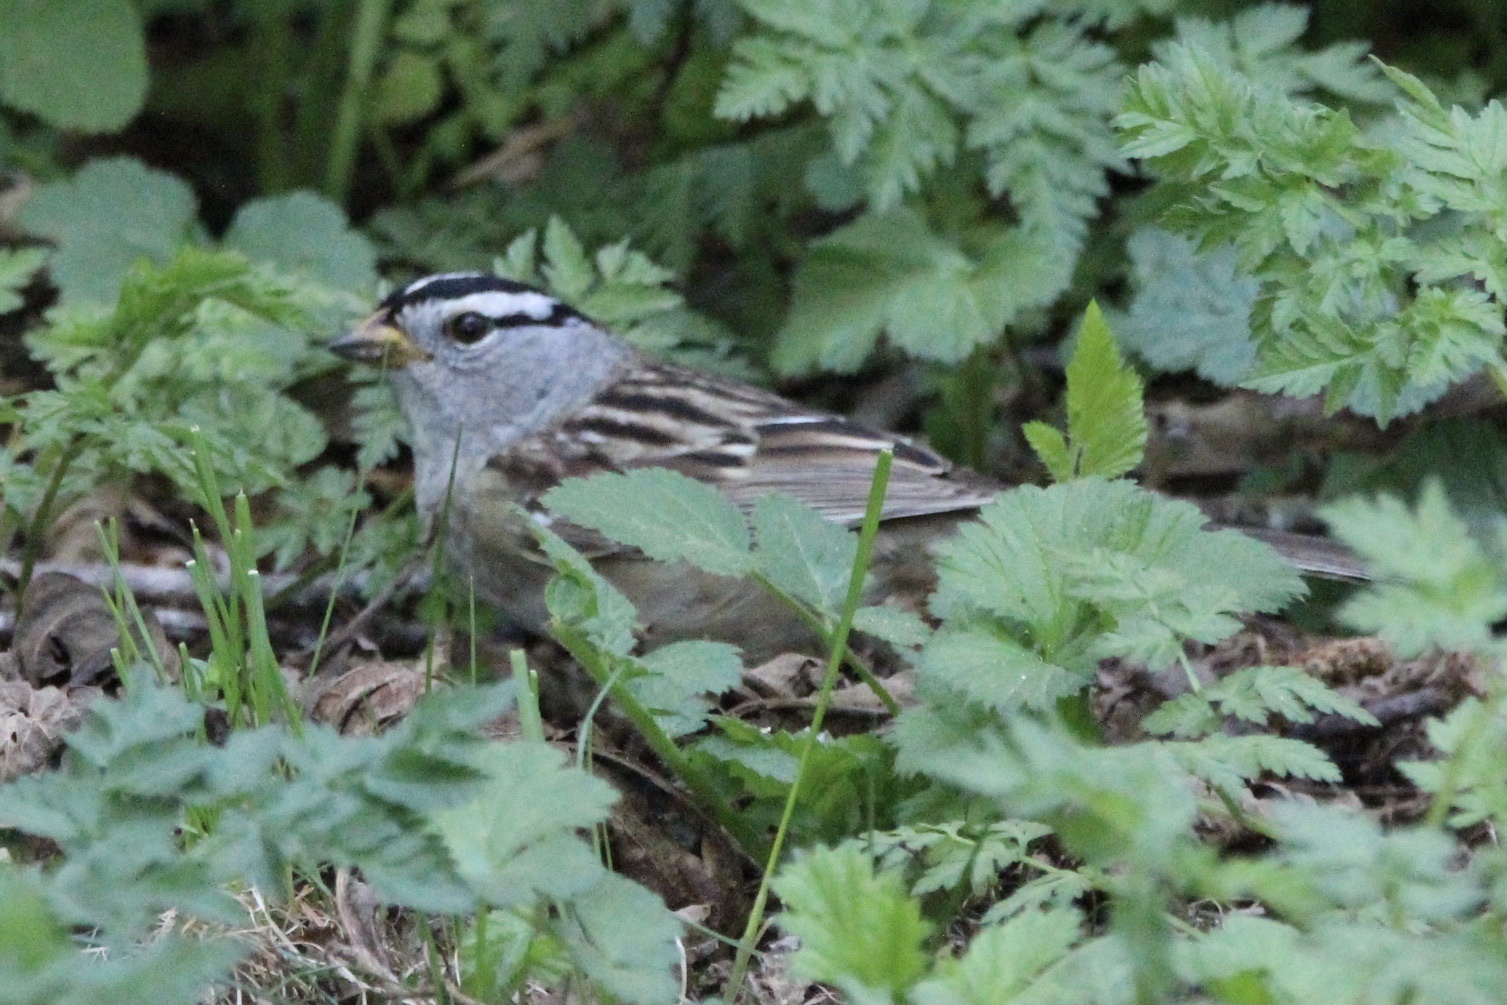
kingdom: Animalia
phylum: Chordata
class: Aves
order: Passeriformes
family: Passerellidae
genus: Zonotrichia
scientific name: Zonotrichia leucophrys
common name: White-crowned sparrow
